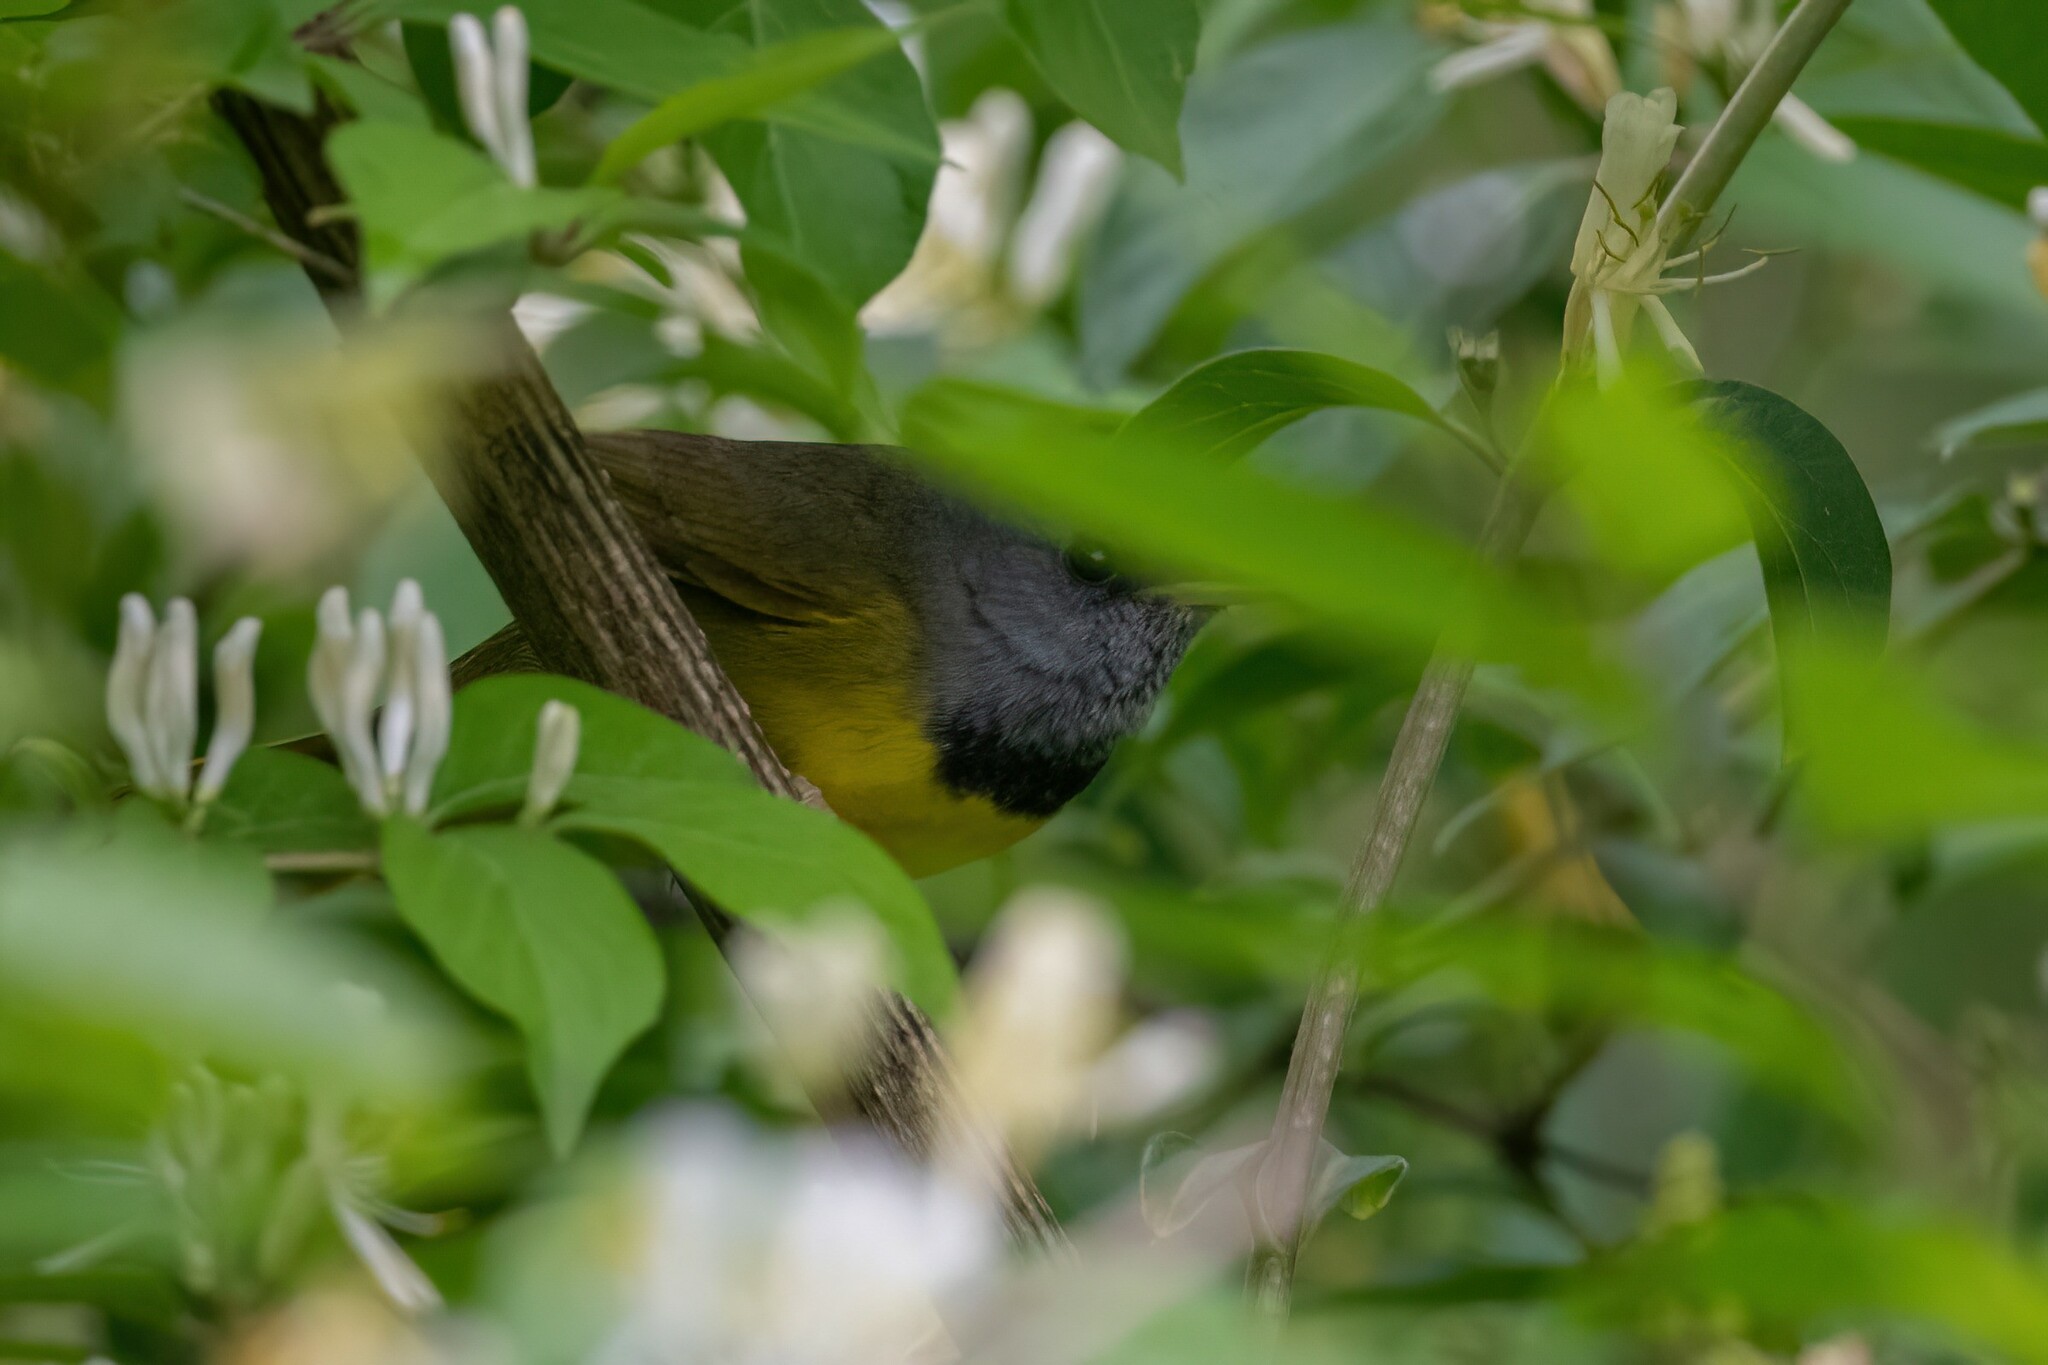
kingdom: Animalia
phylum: Chordata
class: Aves
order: Passeriformes
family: Parulidae
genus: Geothlypis
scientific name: Geothlypis philadelphia
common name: Mourning warbler
